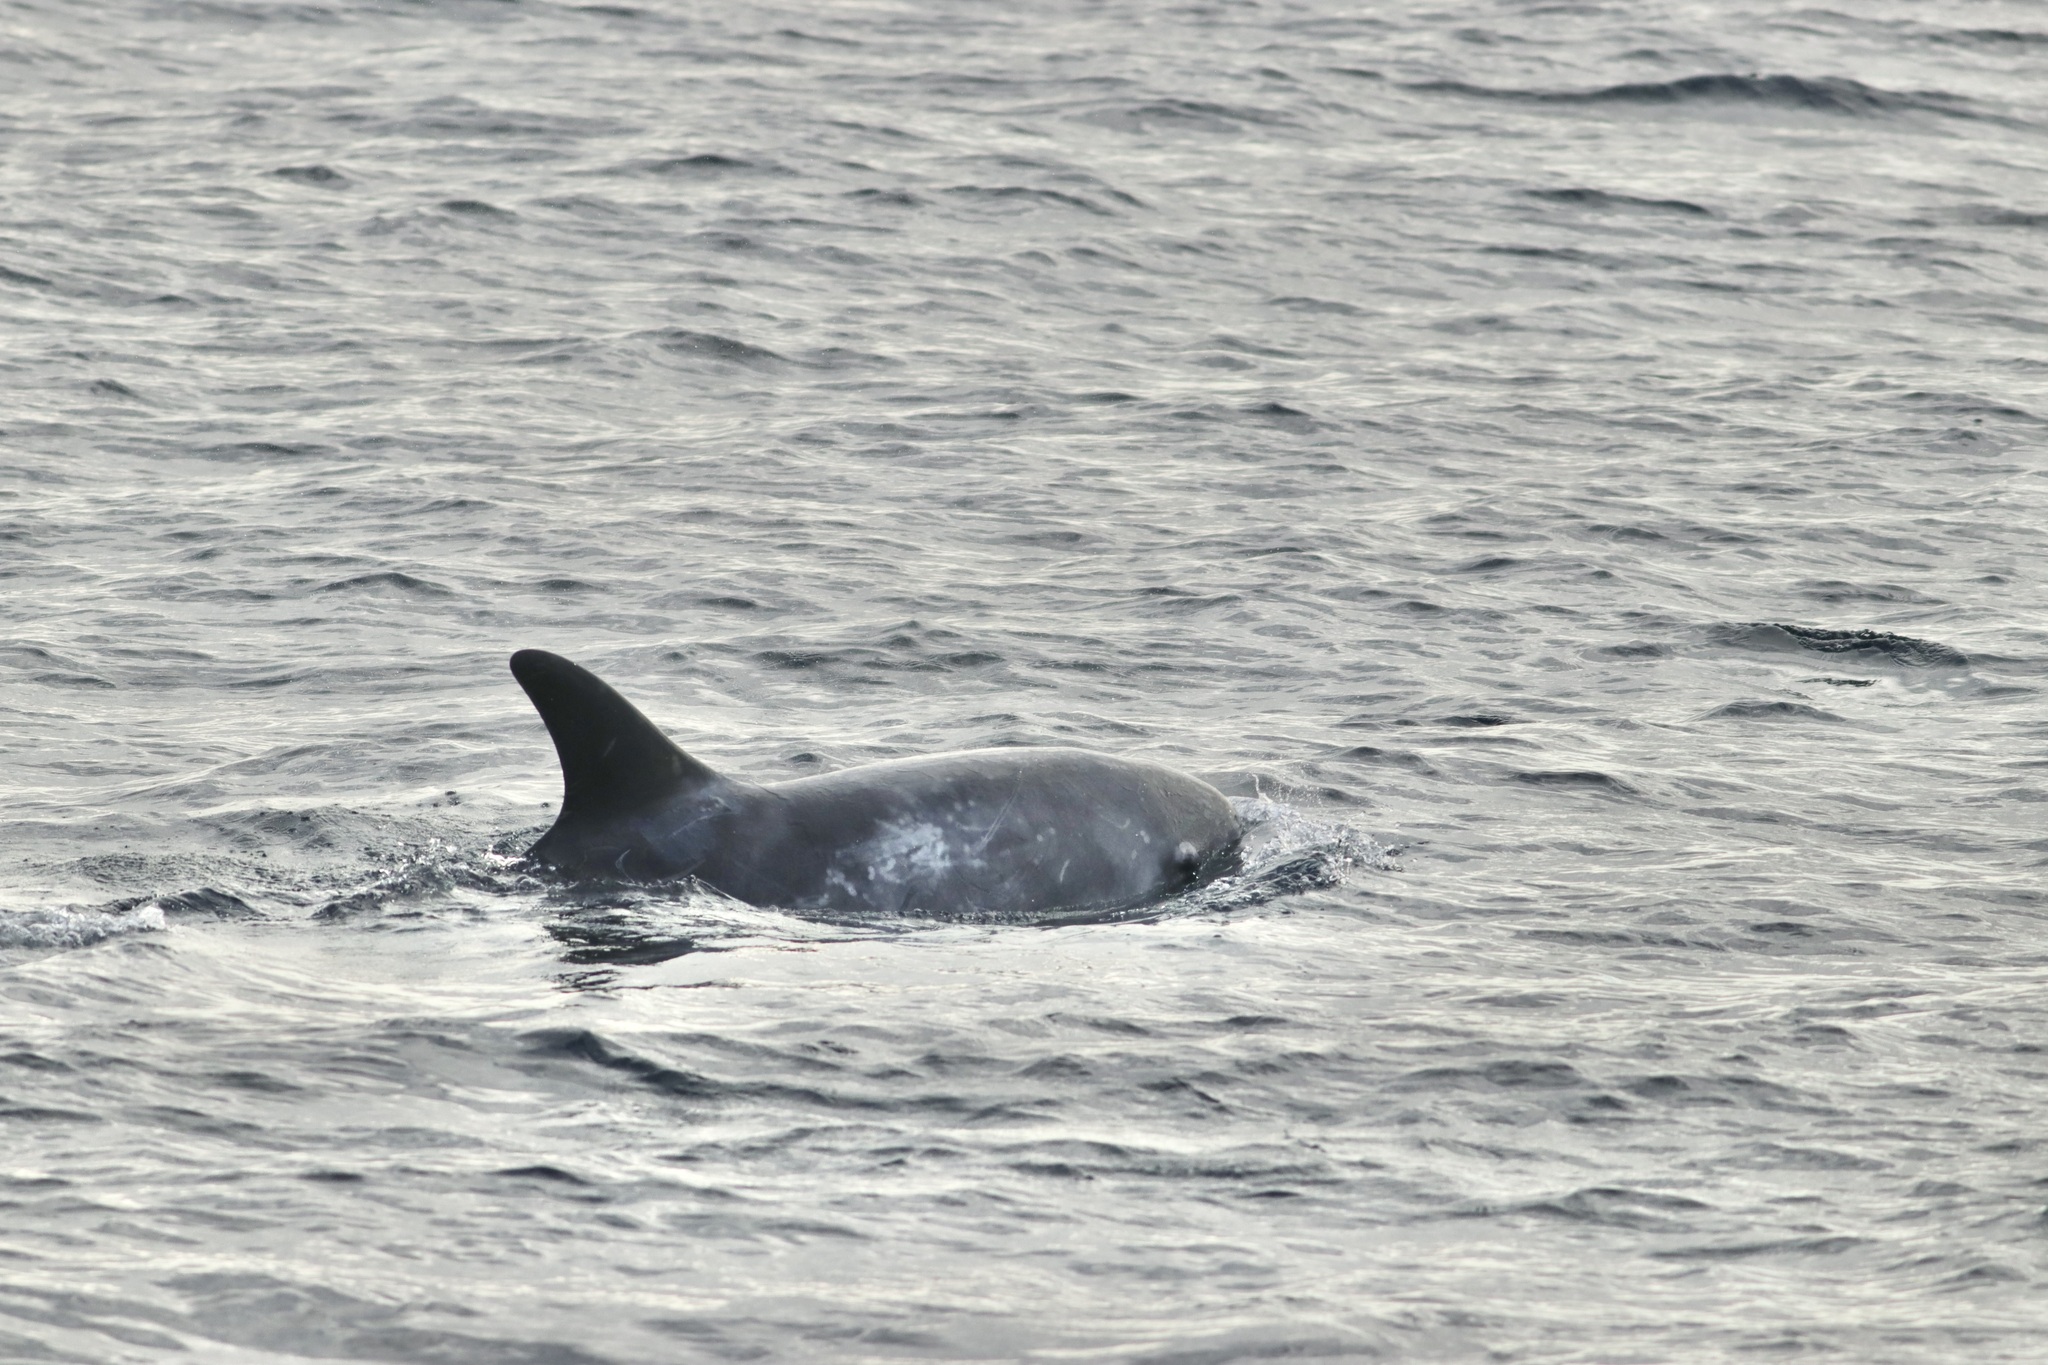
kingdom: Animalia
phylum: Chordata
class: Mammalia
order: Cetacea
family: Delphinidae
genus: Grampus
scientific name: Grampus griseus
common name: Risso's dolphin
